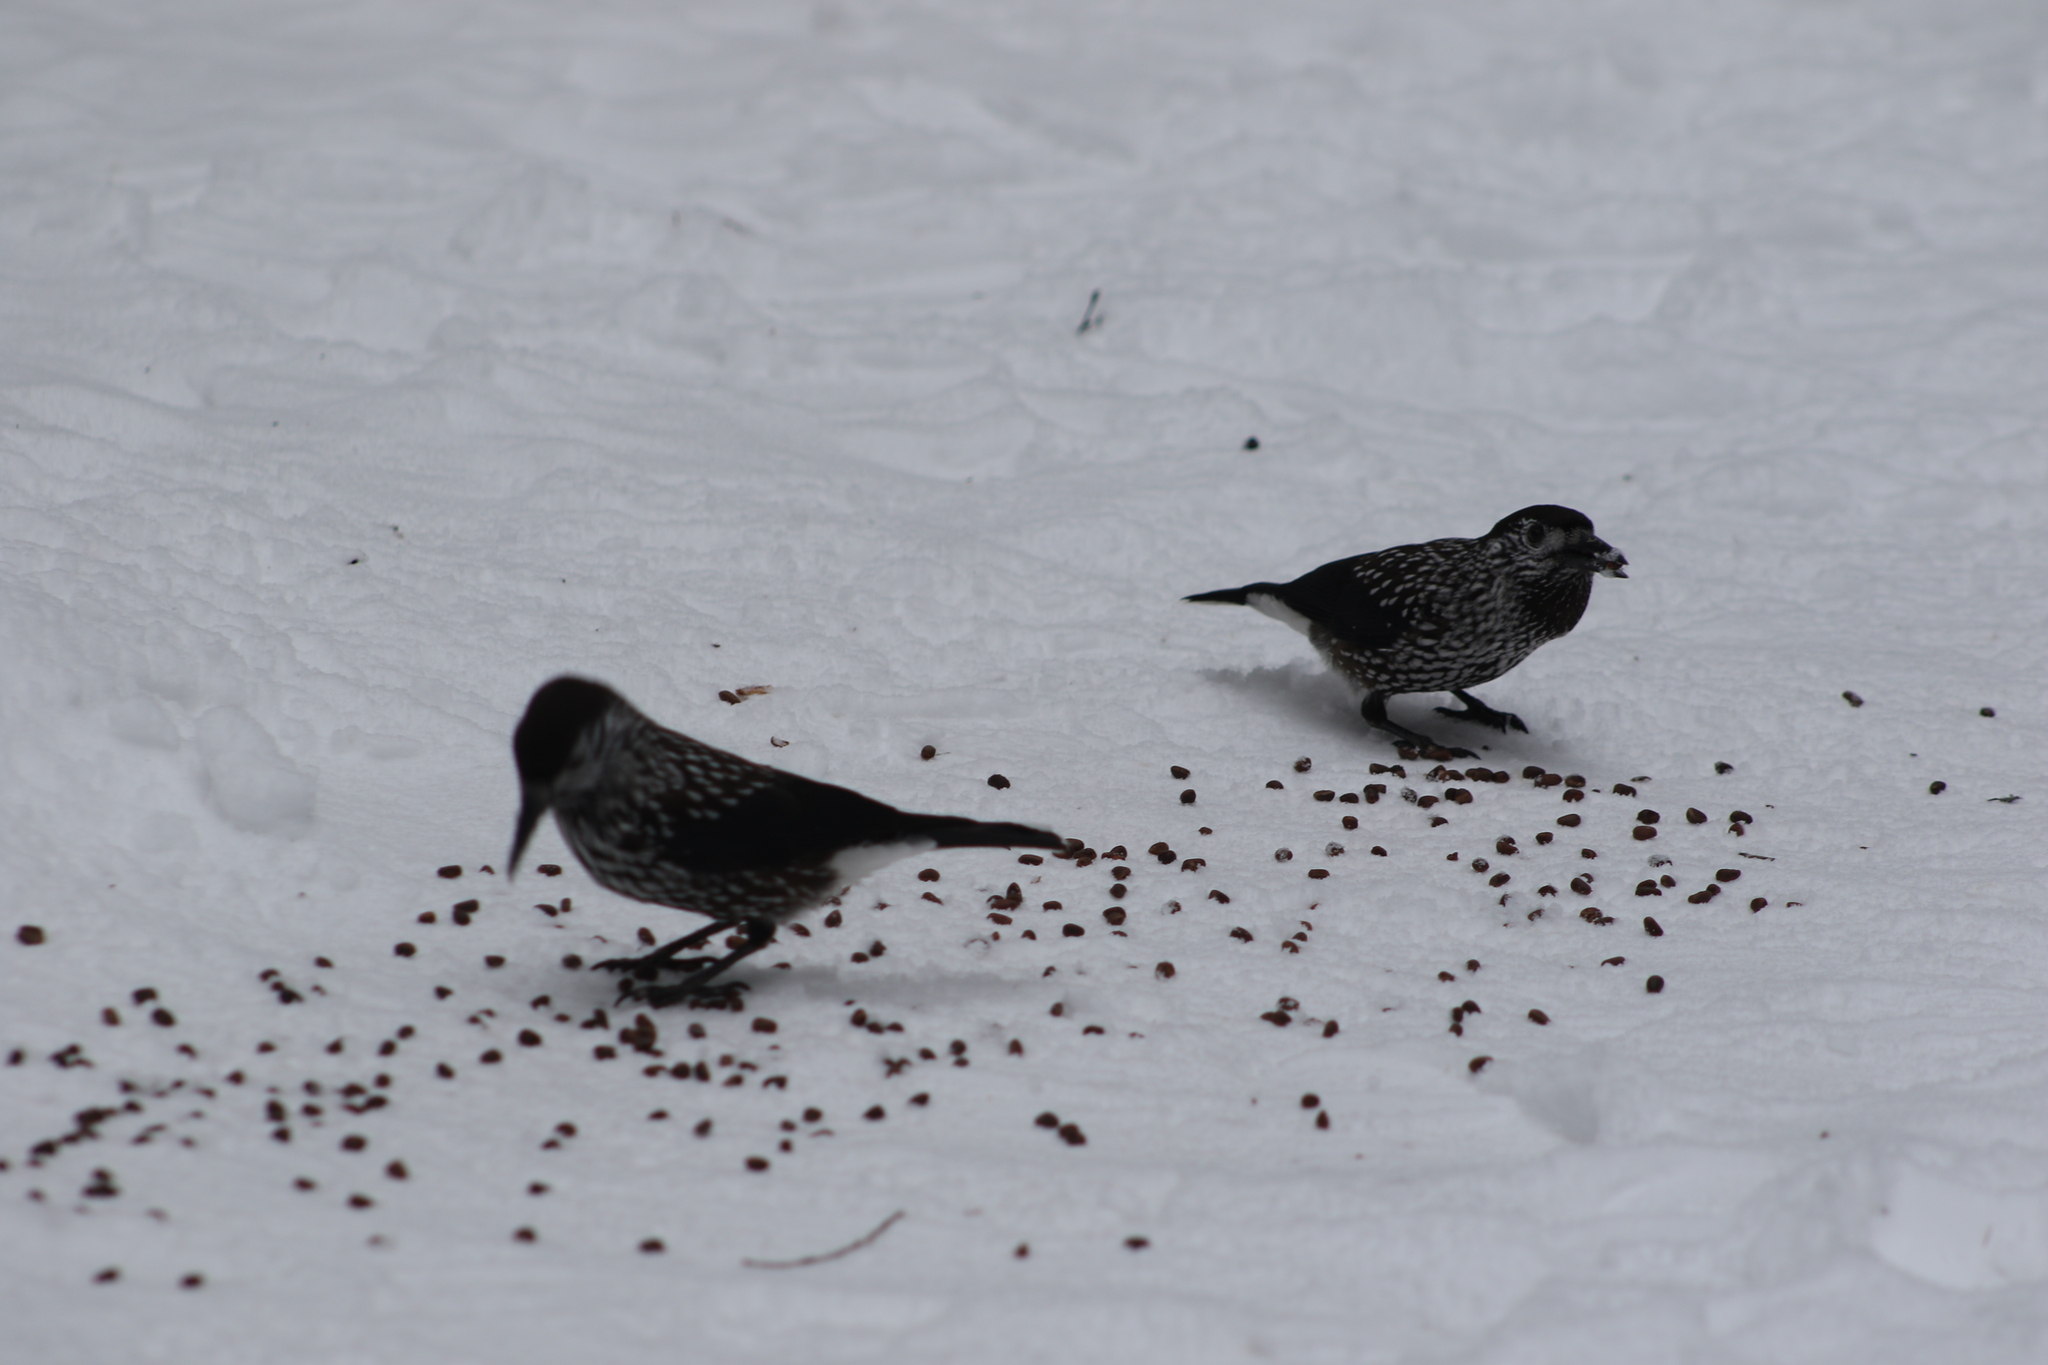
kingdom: Animalia
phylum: Chordata
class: Aves
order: Passeriformes
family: Corvidae
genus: Nucifraga
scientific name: Nucifraga caryocatactes
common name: Spotted nutcracker
